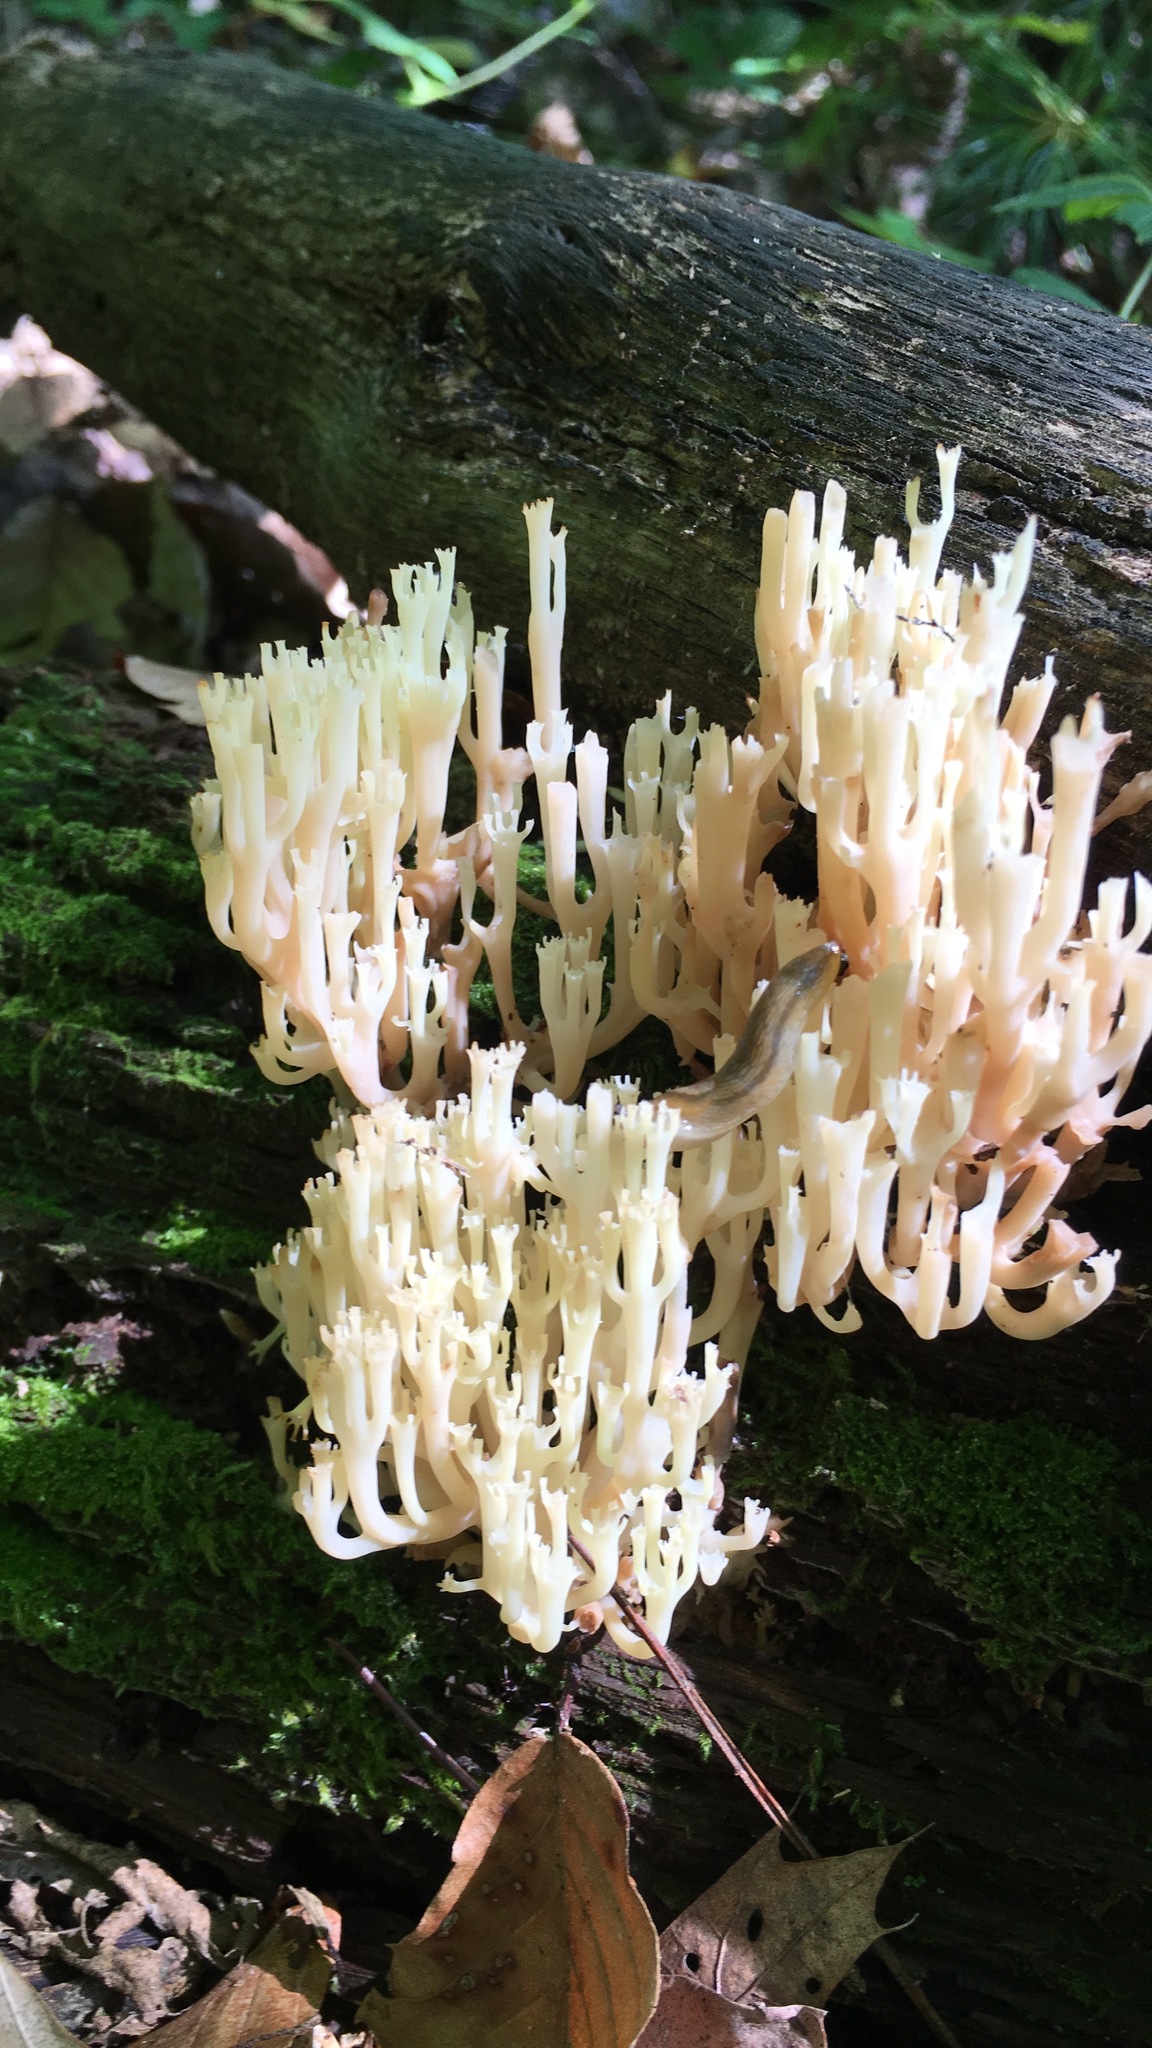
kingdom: Fungi
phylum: Basidiomycota
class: Agaricomycetes
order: Russulales
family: Auriscalpiaceae
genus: Artomyces
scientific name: Artomyces pyxidatus
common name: Crown-tipped coral fungus
